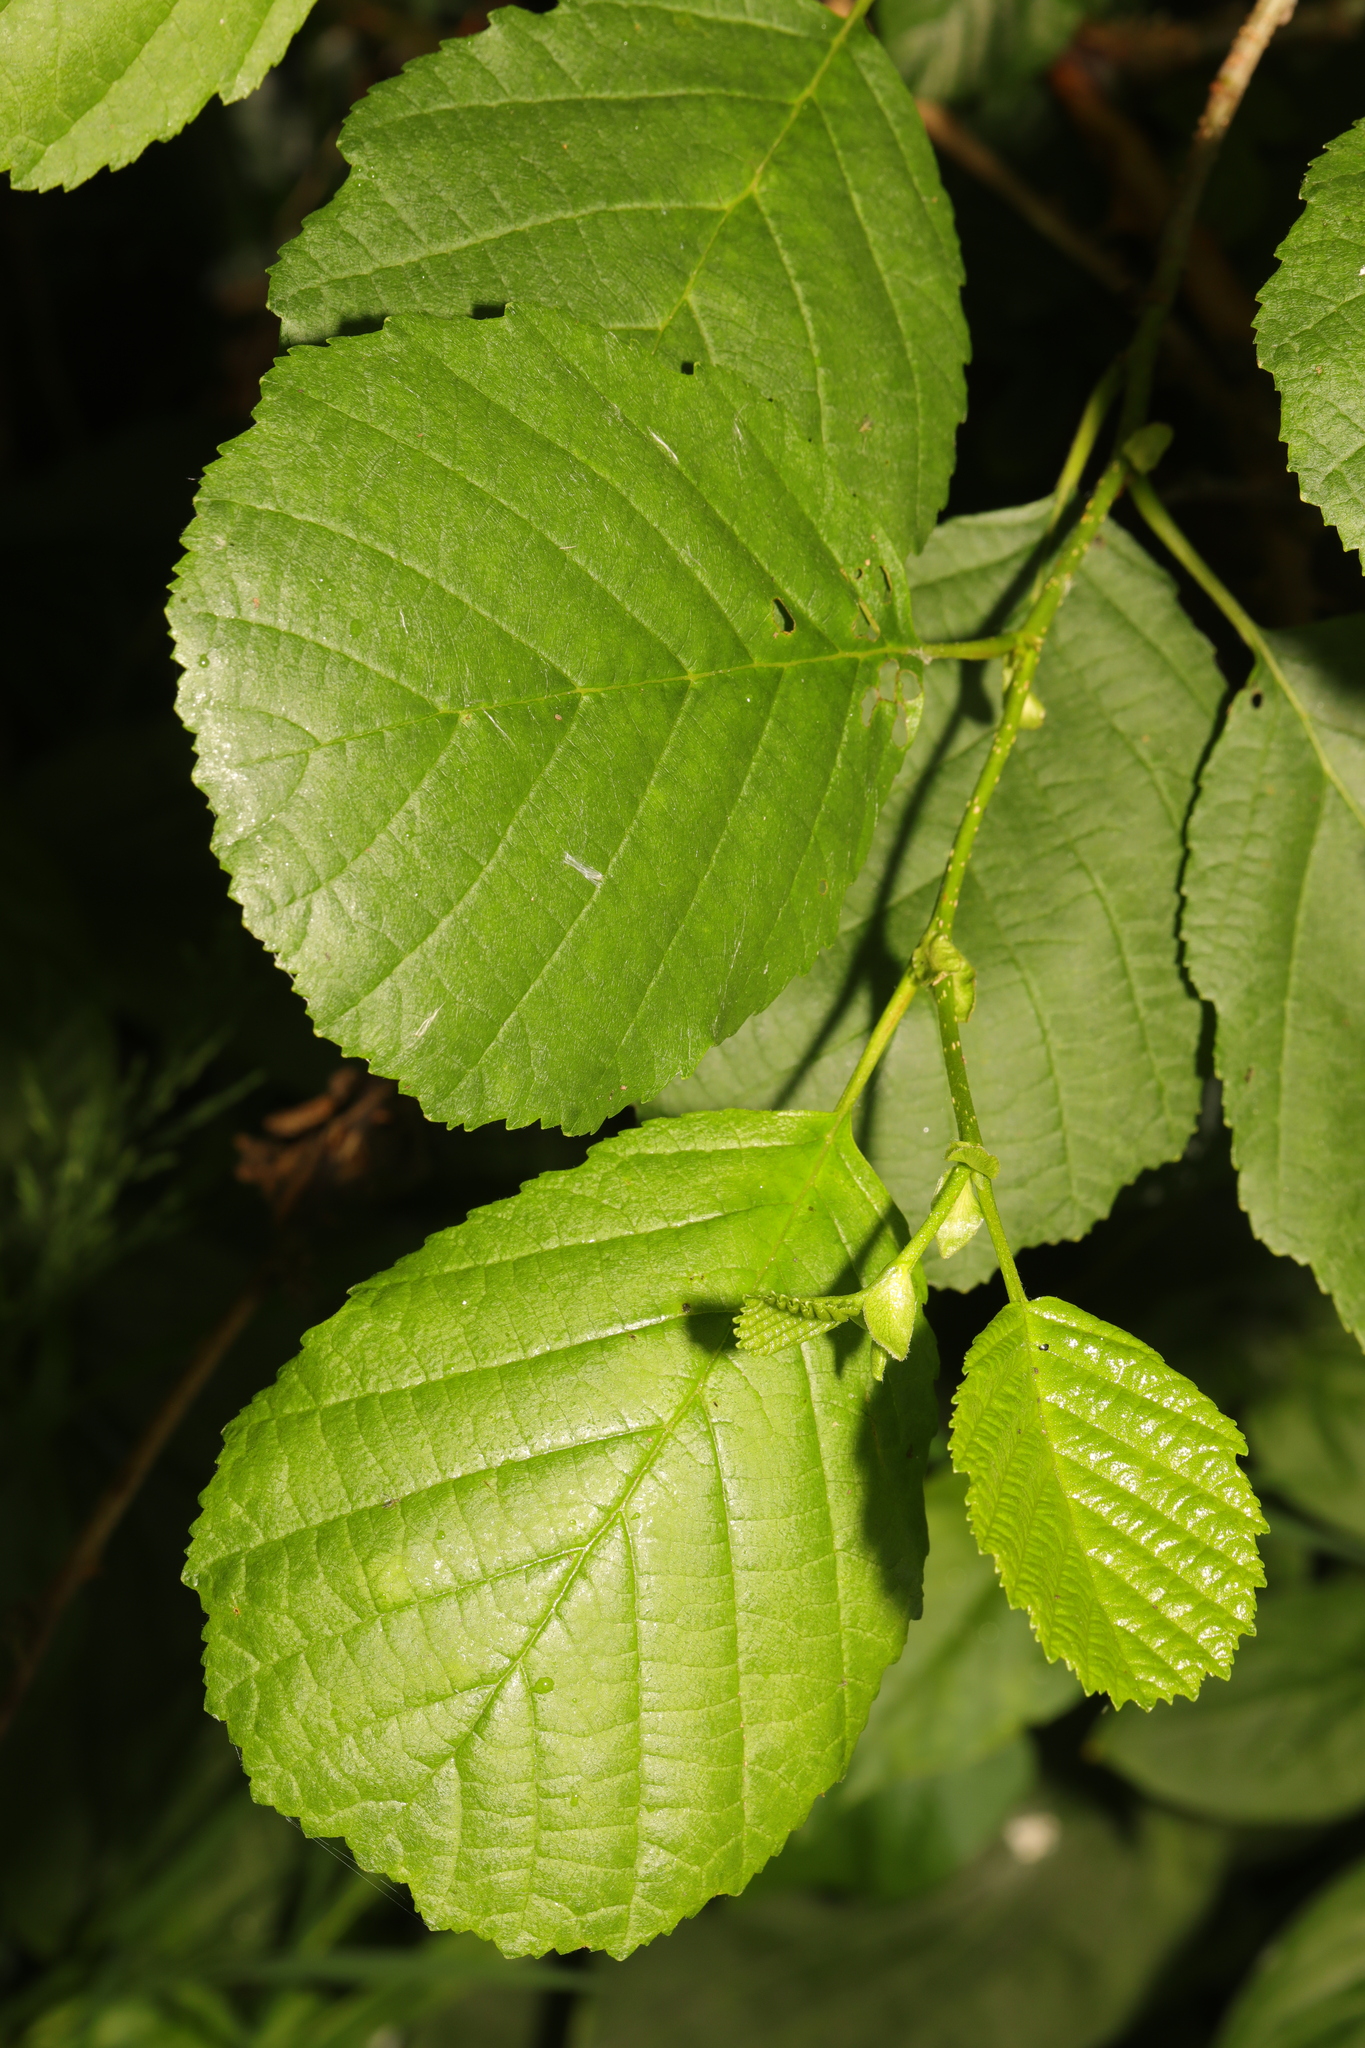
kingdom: Plantae
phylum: Tracheophyta
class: Magnoliopsida
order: Fagales
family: Betulaceae
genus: Alnus
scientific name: Alnus glutinosa
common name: Black alder
